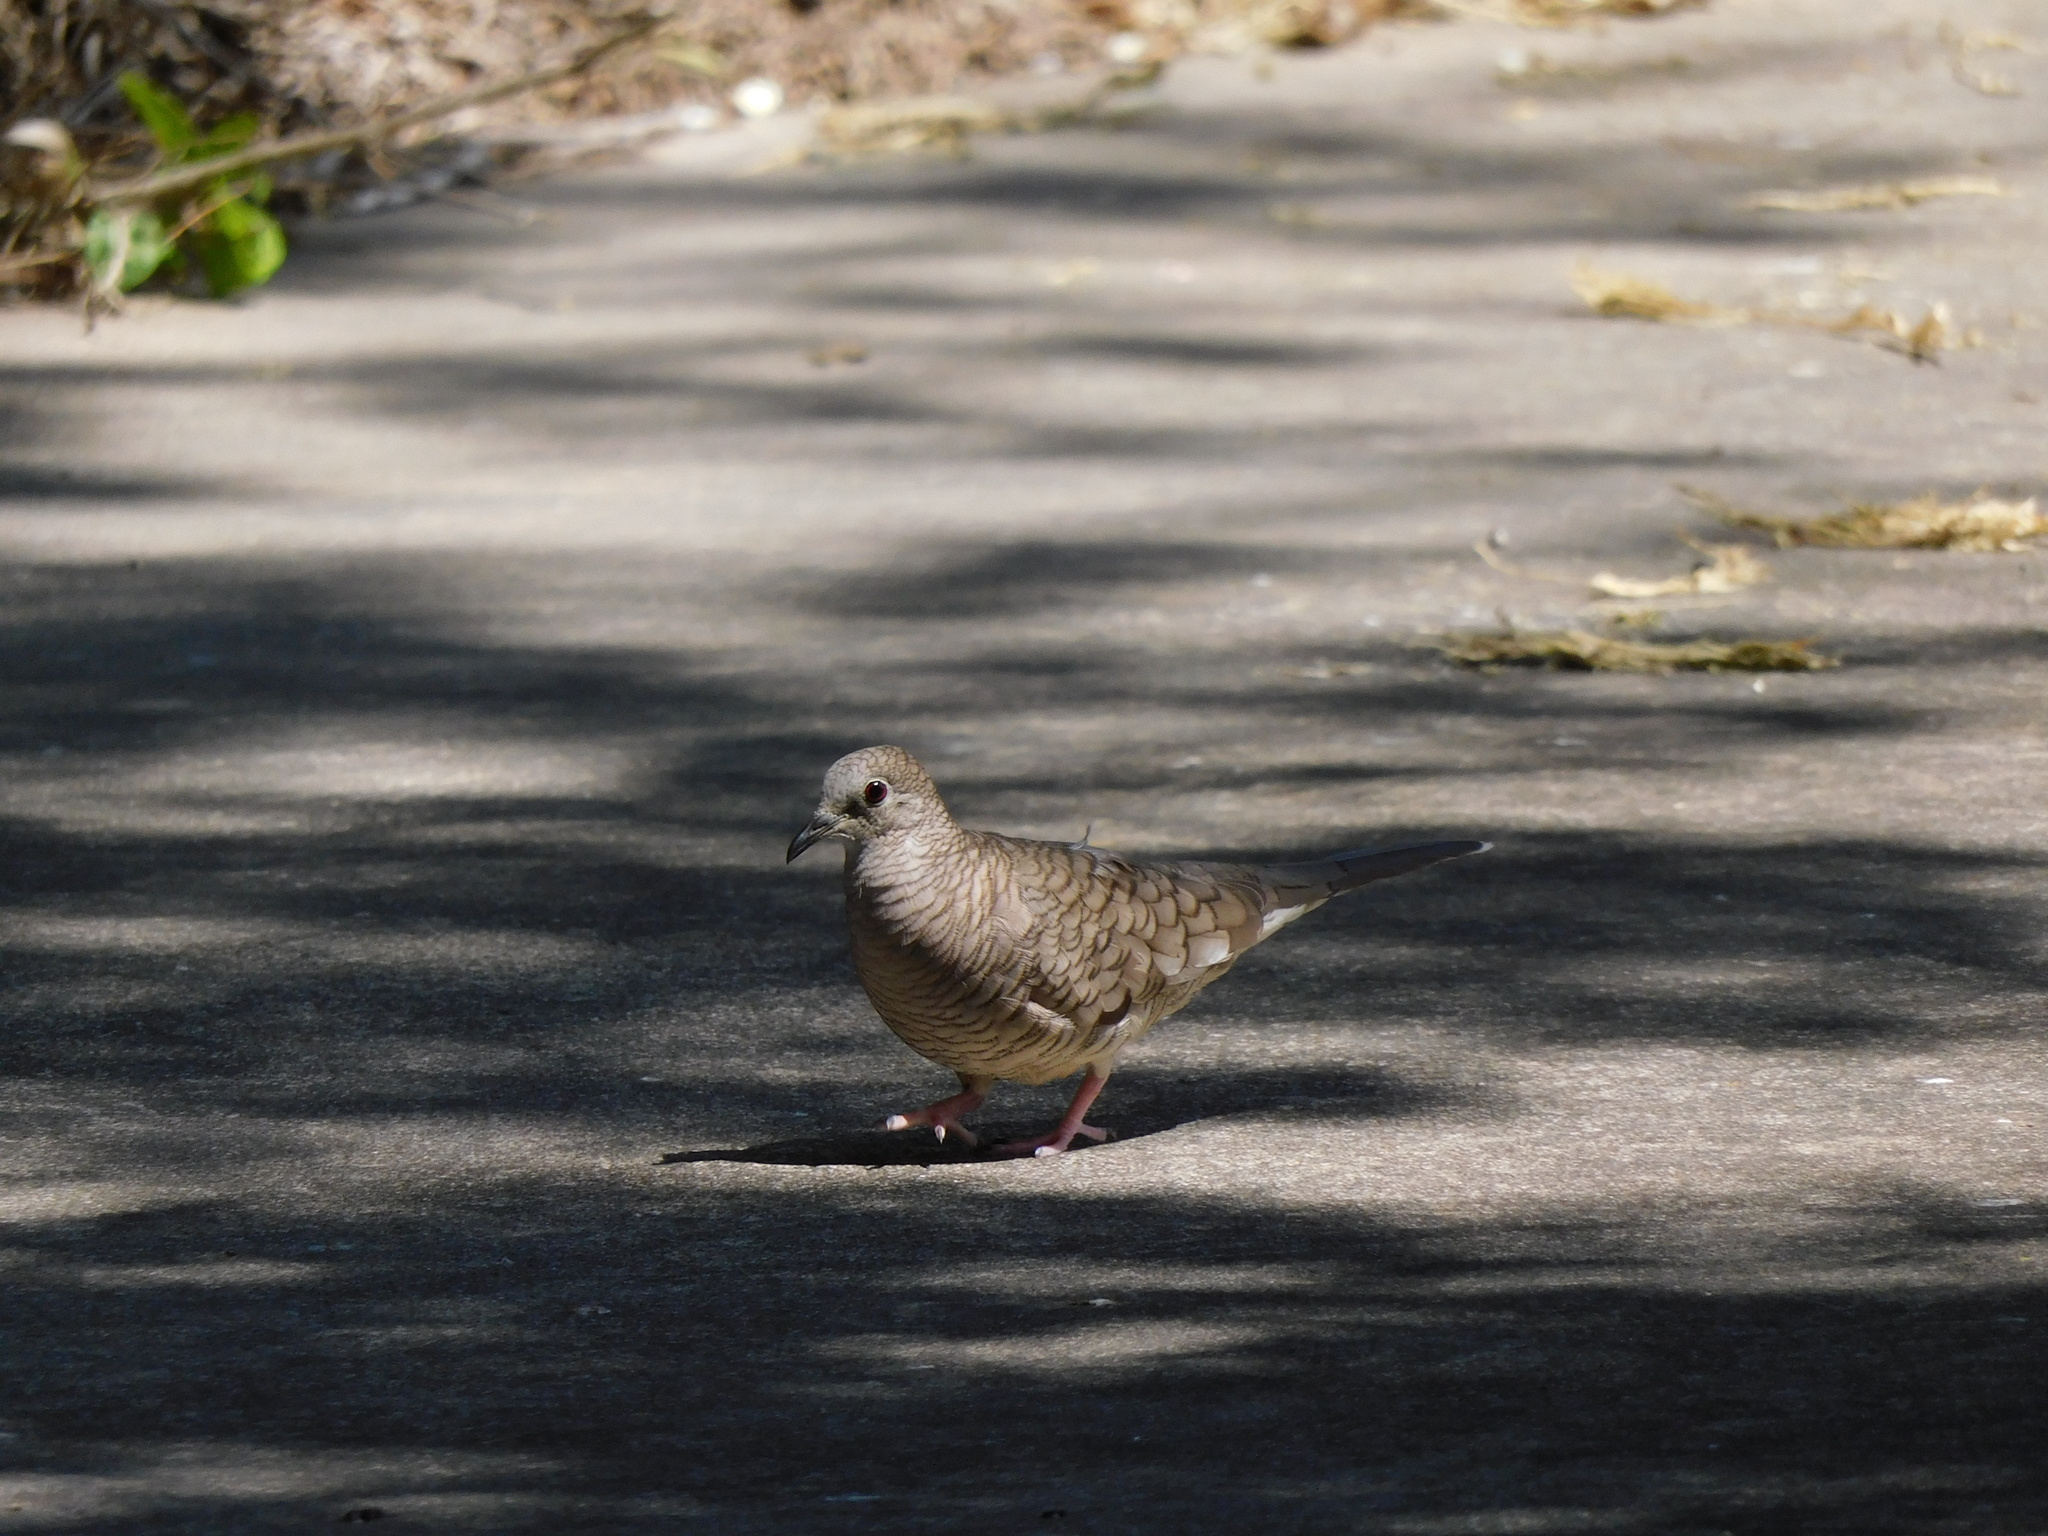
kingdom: Animalia
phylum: Chordata
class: Aves
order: Columbiformes
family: Columbidae
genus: Columbina
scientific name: Columbina inca
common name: Inca dove
